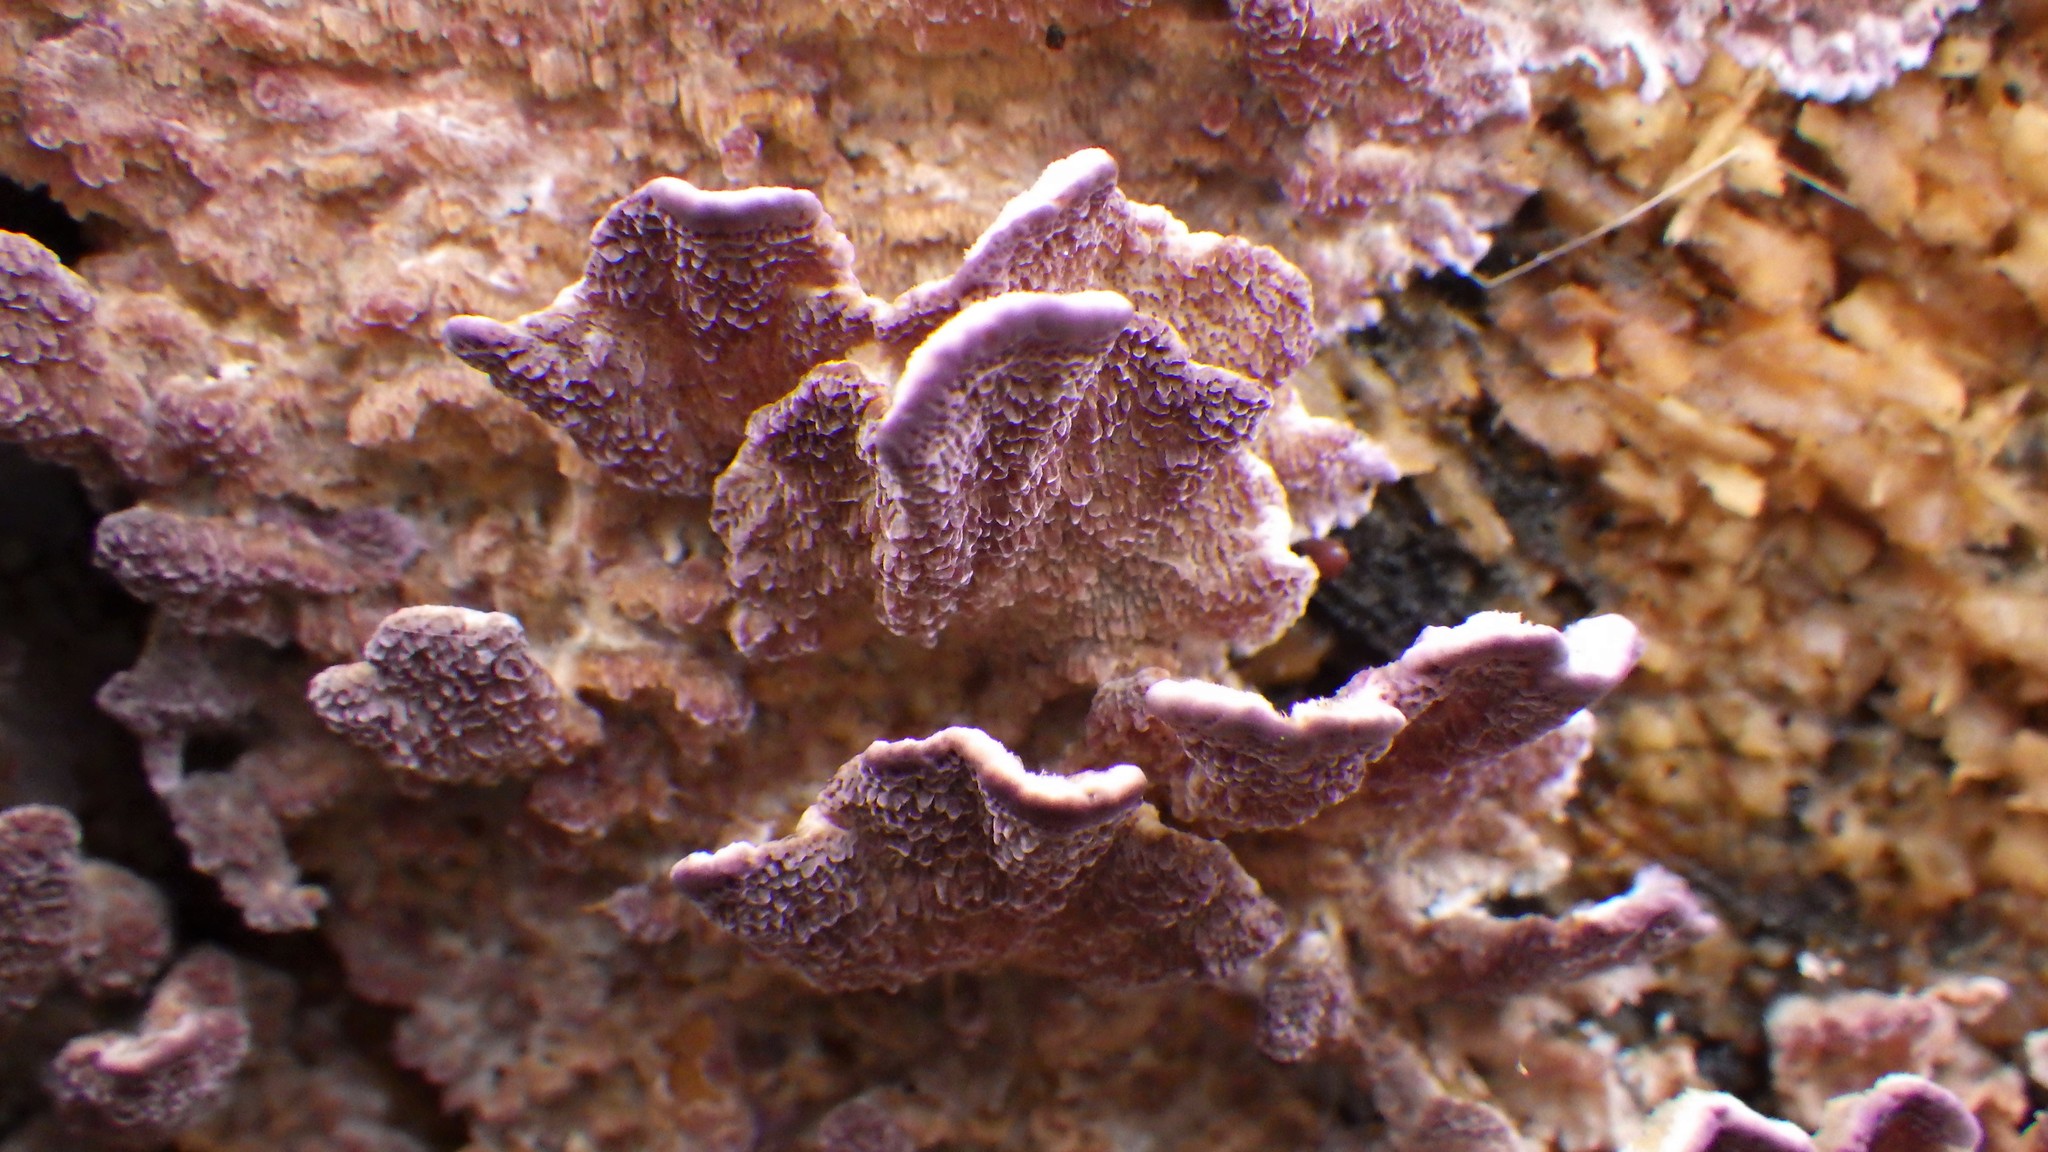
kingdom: Fungi
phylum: Basidiomycota
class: Agaricomycetes
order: Hymenochaetales
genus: Trichaptum
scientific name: Trichaptum fuscoviolaceum
